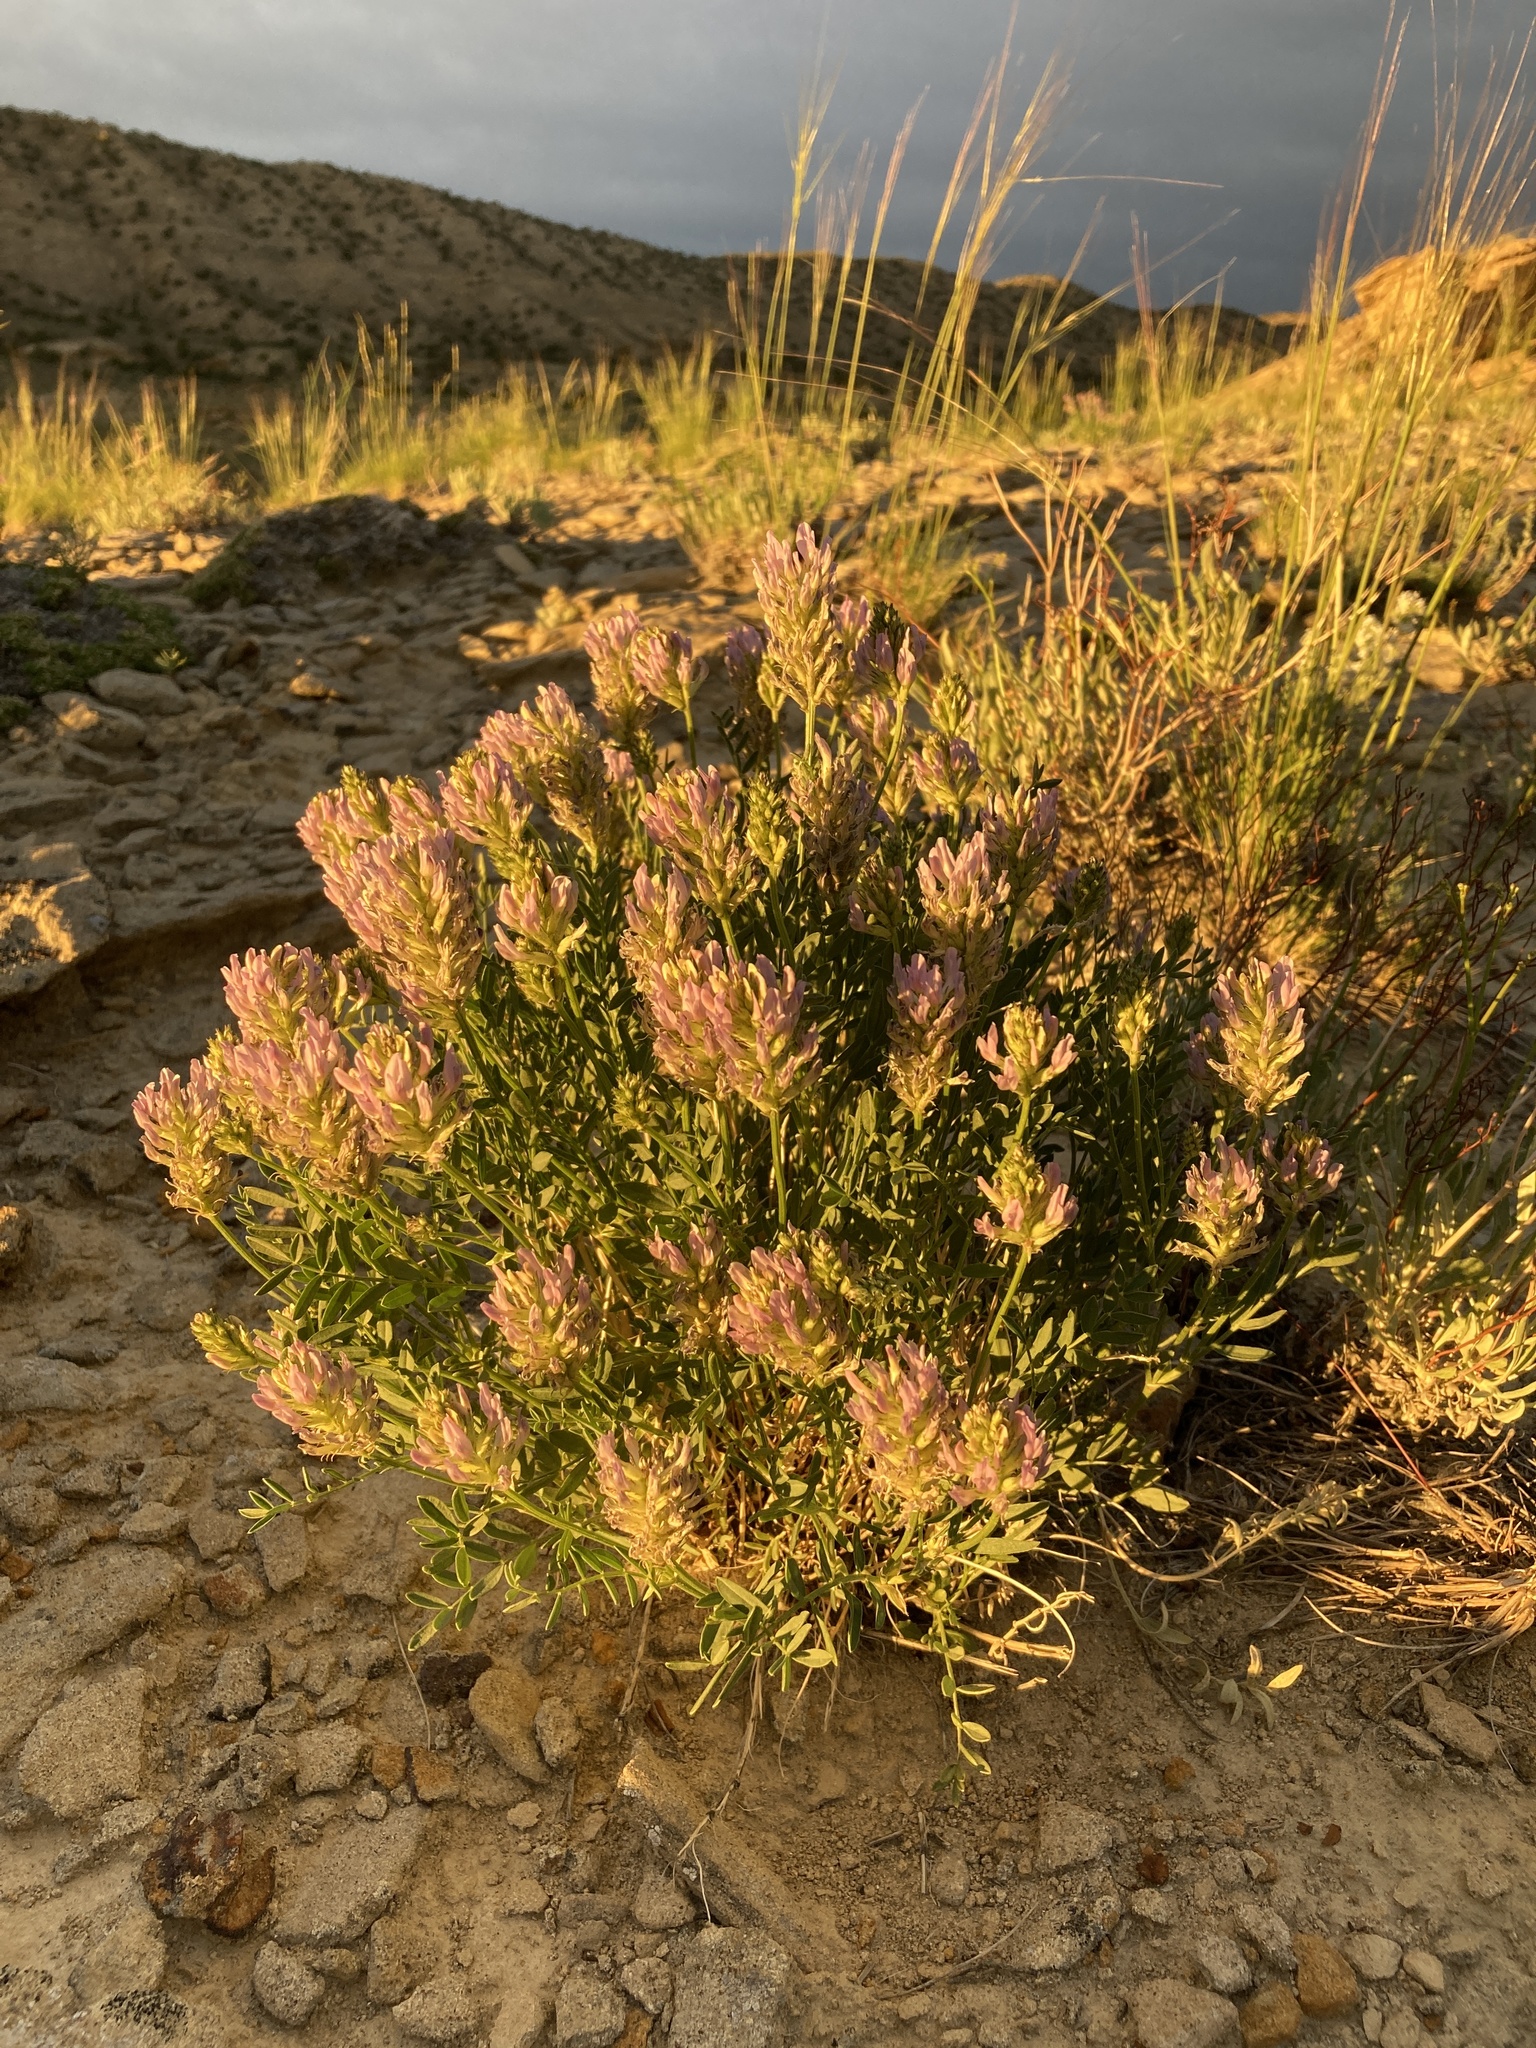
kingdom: Plantae
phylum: Tracheophyta
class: Magnoliopsida
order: Fabales
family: Fabaceae
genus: Astragalus
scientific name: Astragalus laxmannii
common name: Laxmann's milk-vetch
